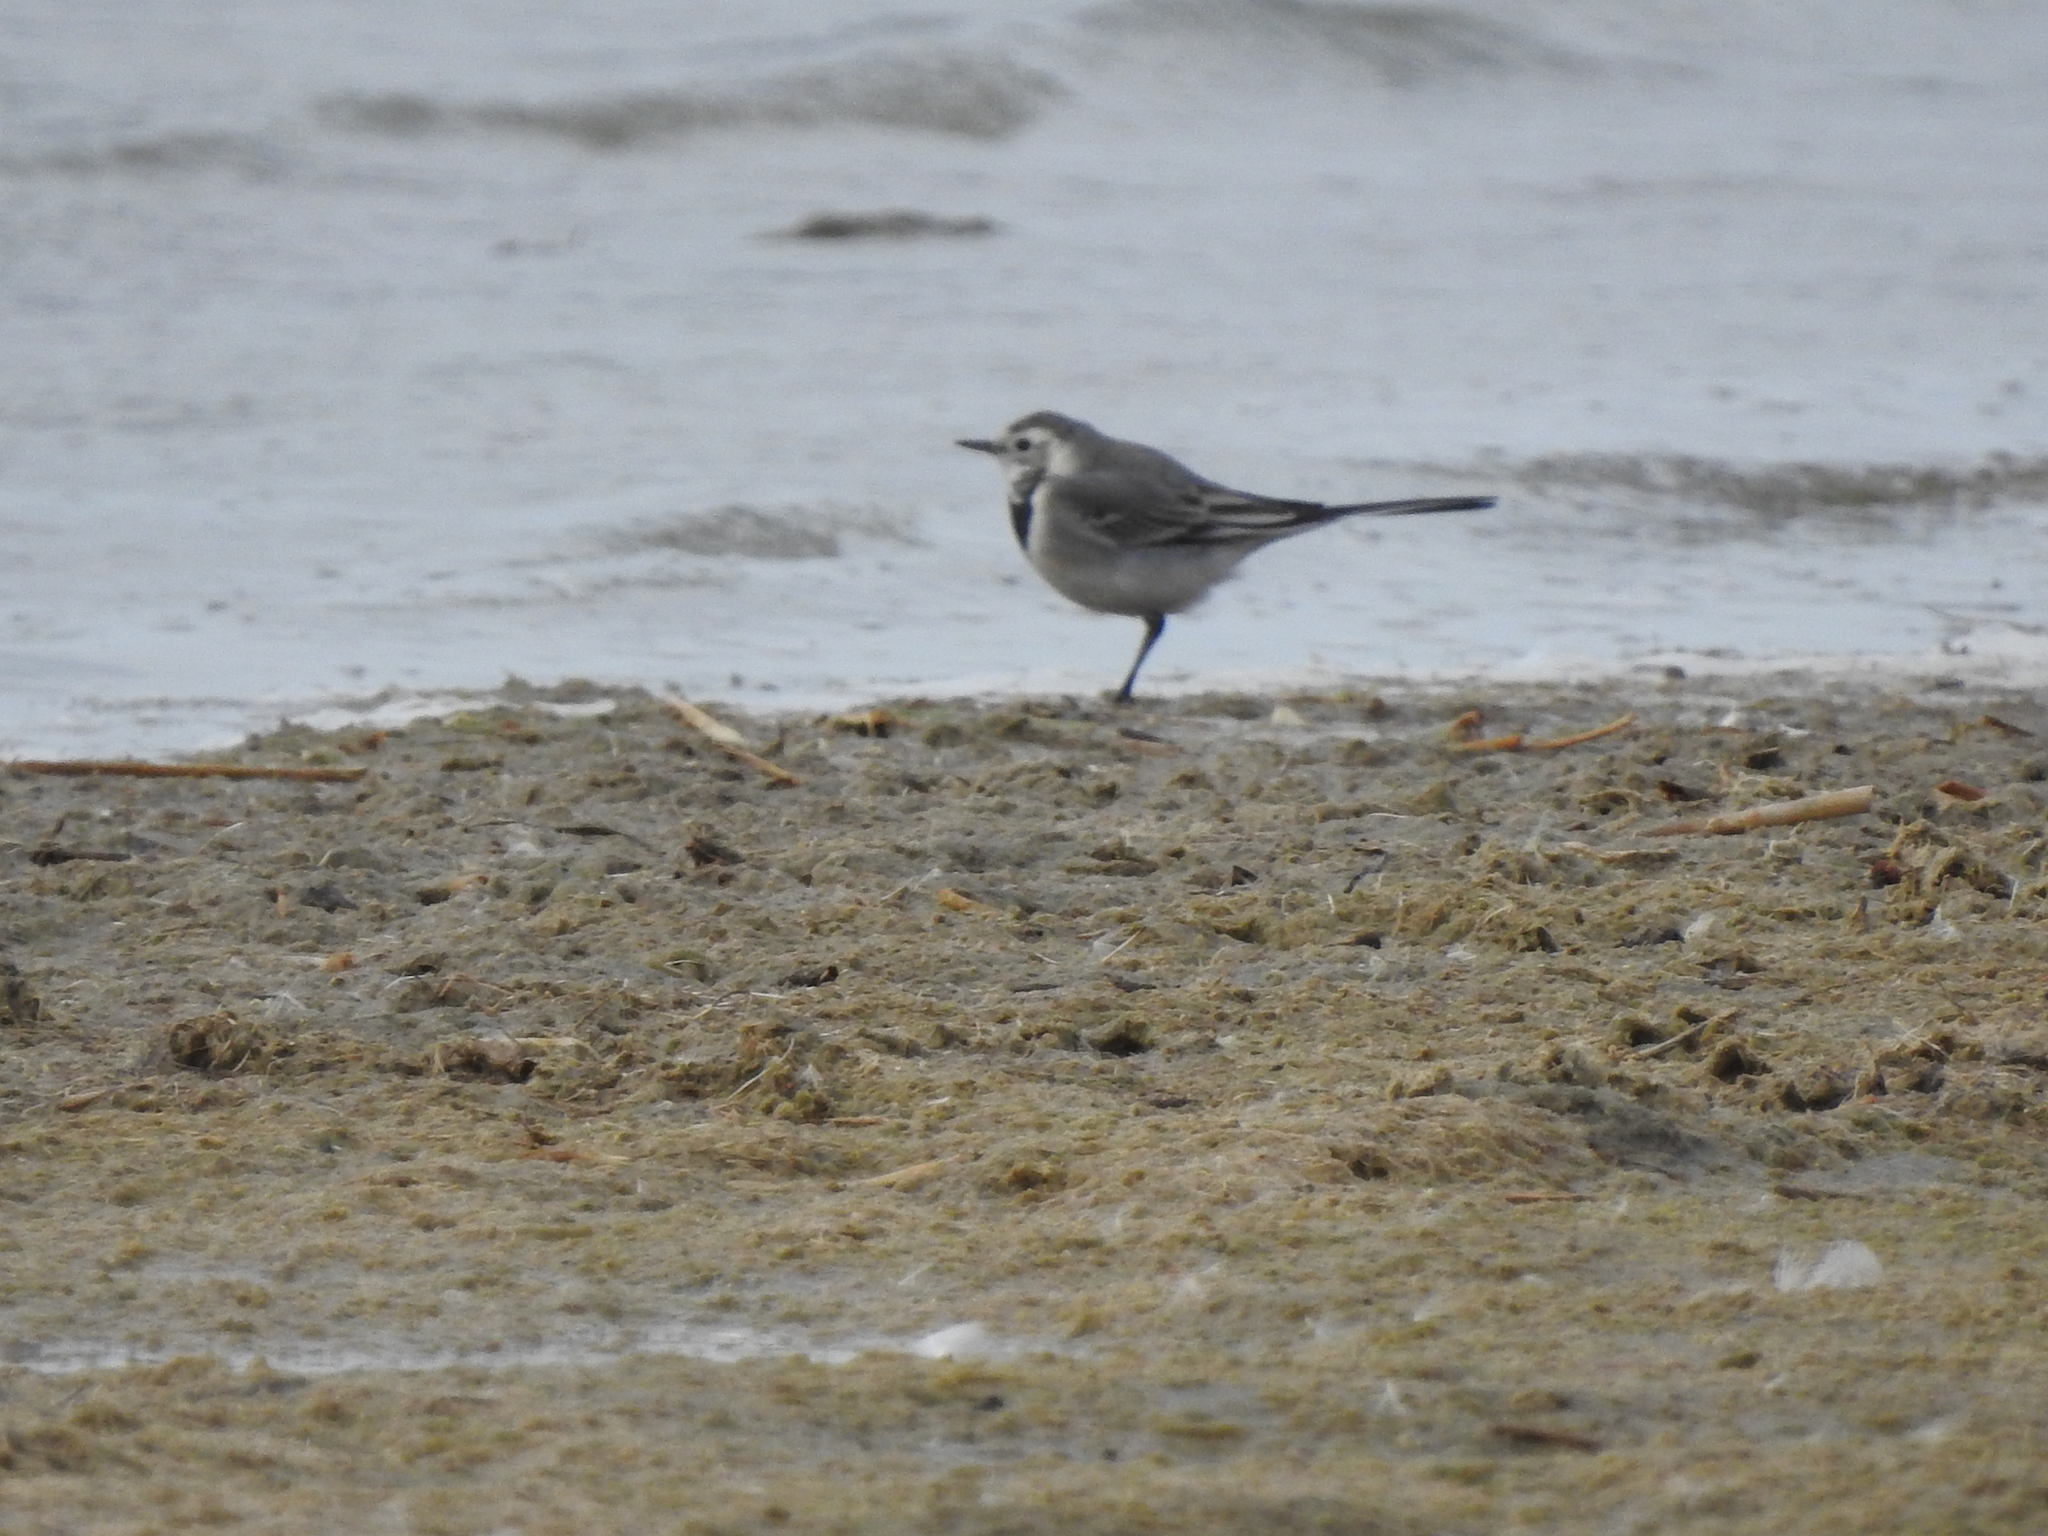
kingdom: Animalia
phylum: Chordata
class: Aves
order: Passeriformes
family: Motacillidae
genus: Motacilla
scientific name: Motacilla alba
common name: White wagtail
